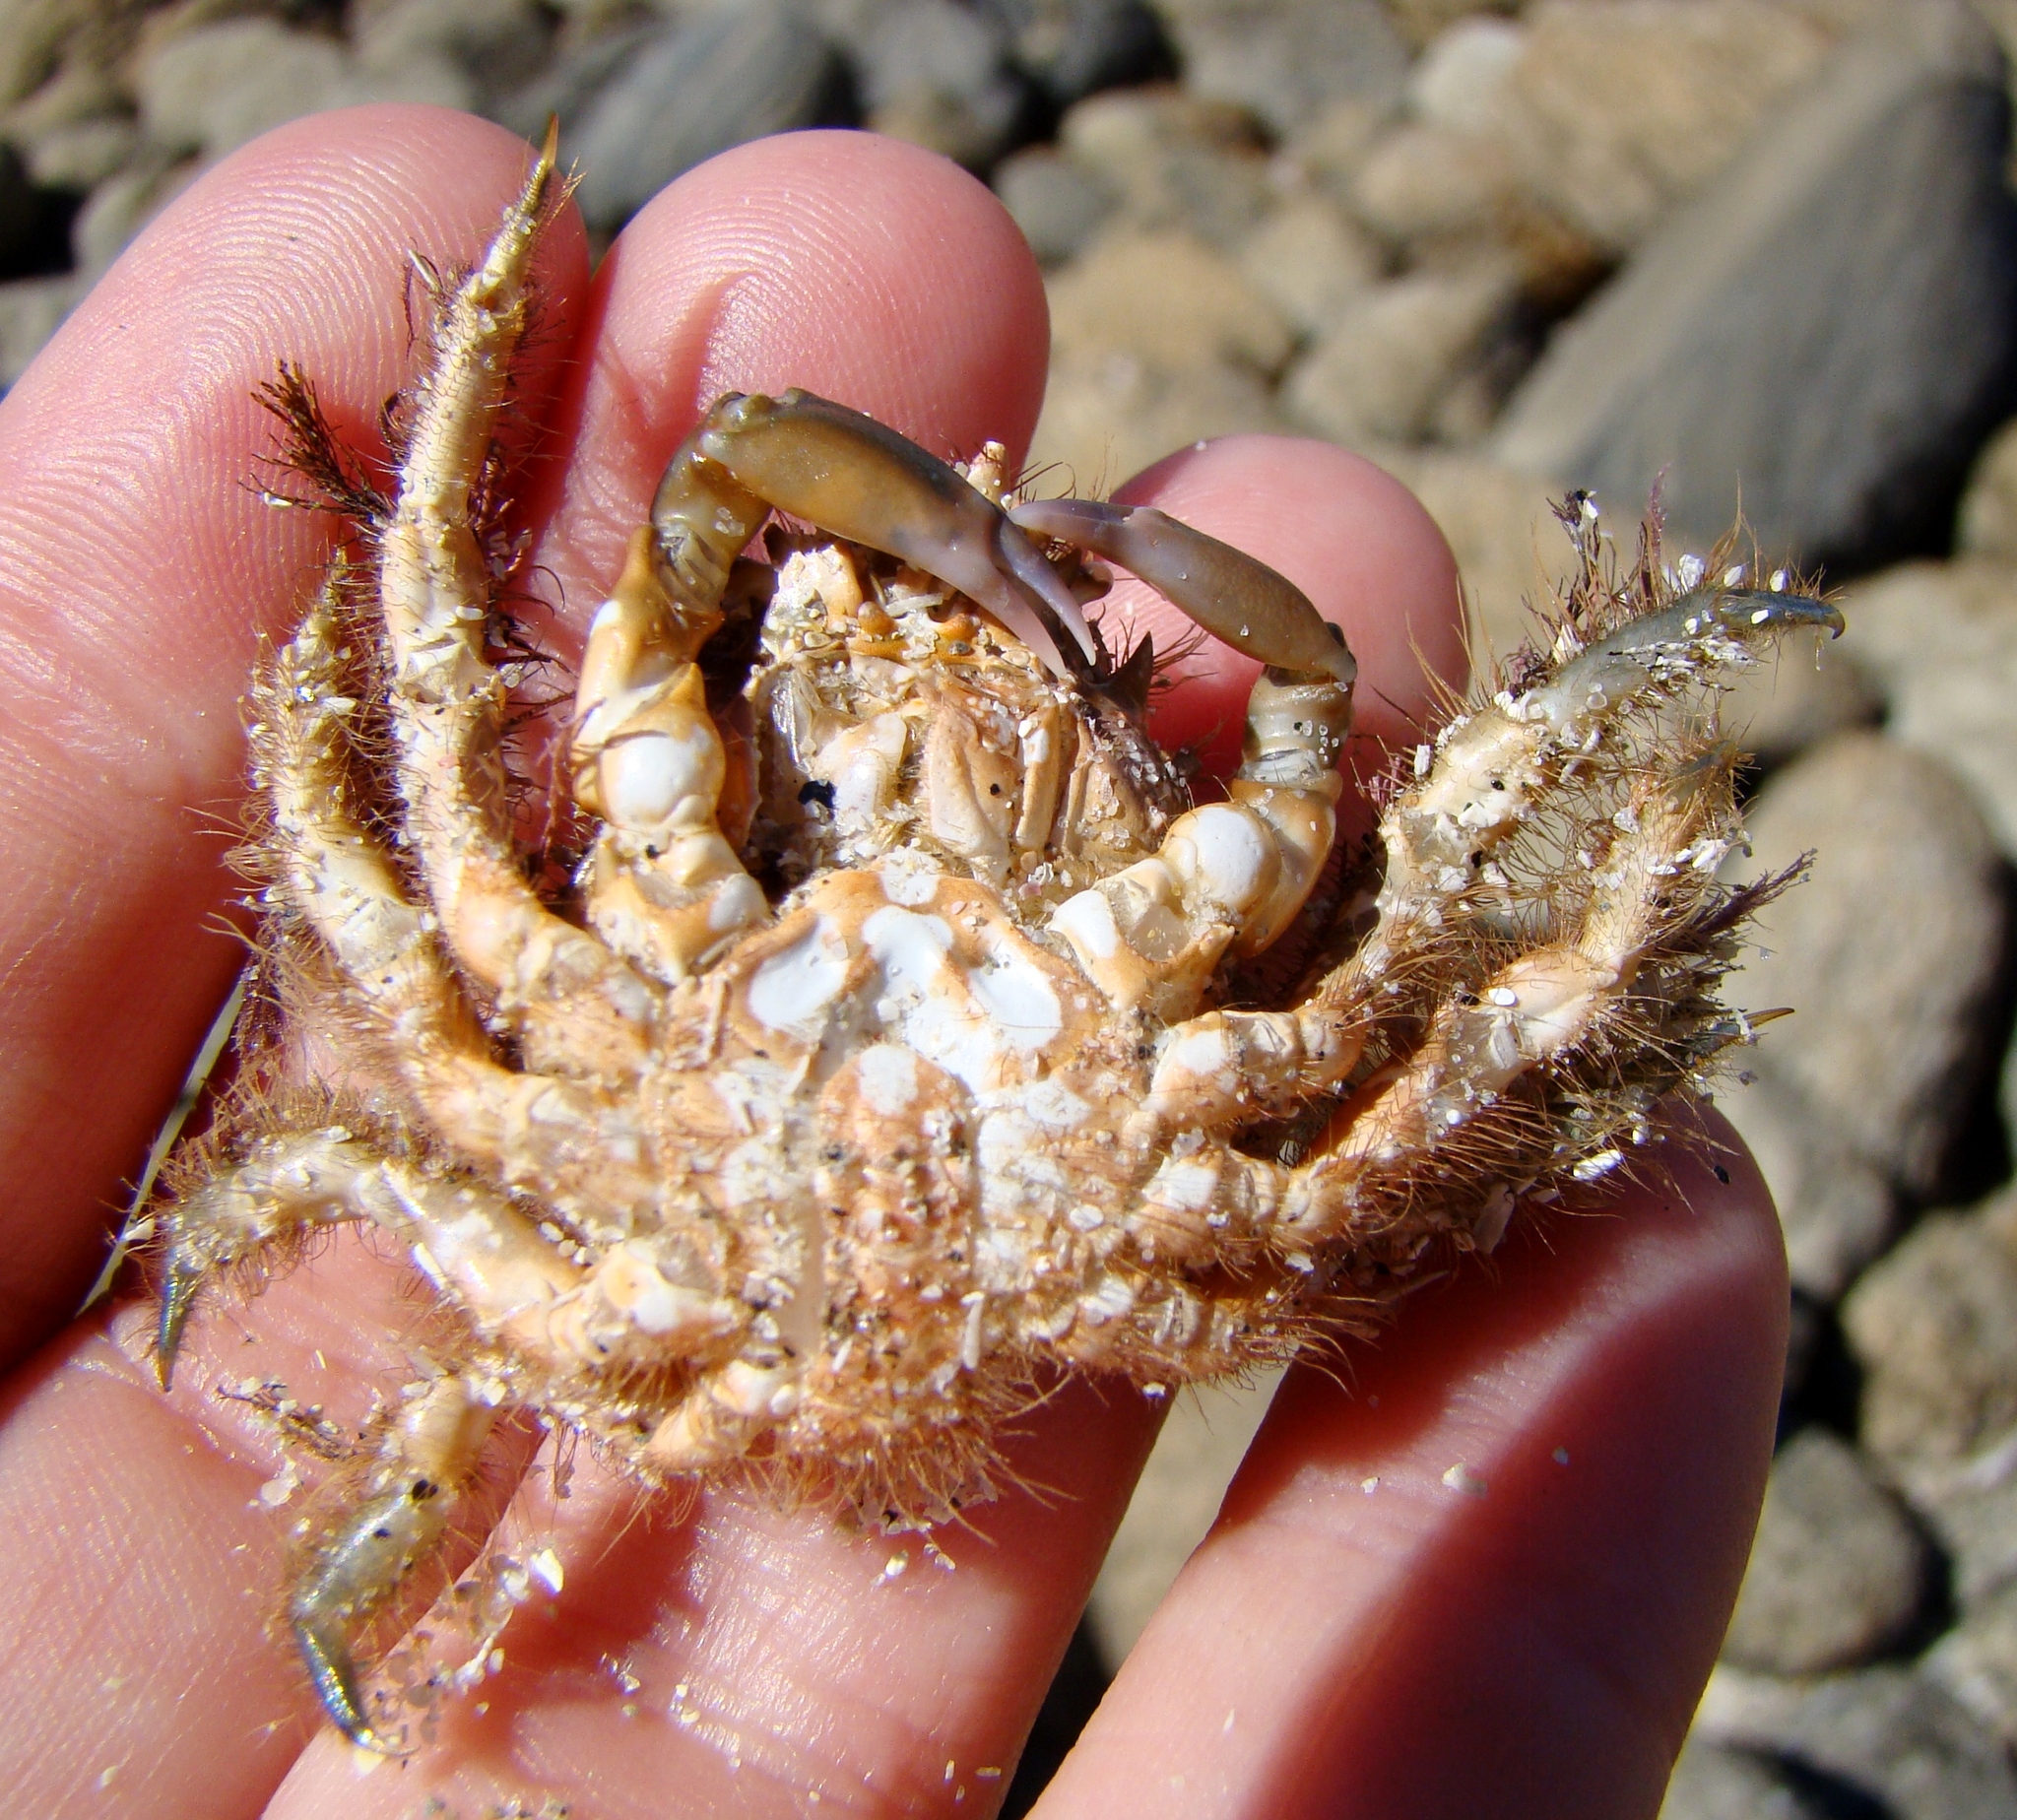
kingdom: Animalia
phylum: Arthropoda
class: Malacostraca
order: Decapoda
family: Majidae
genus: Notomithrax
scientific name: Notomithrax ursus
